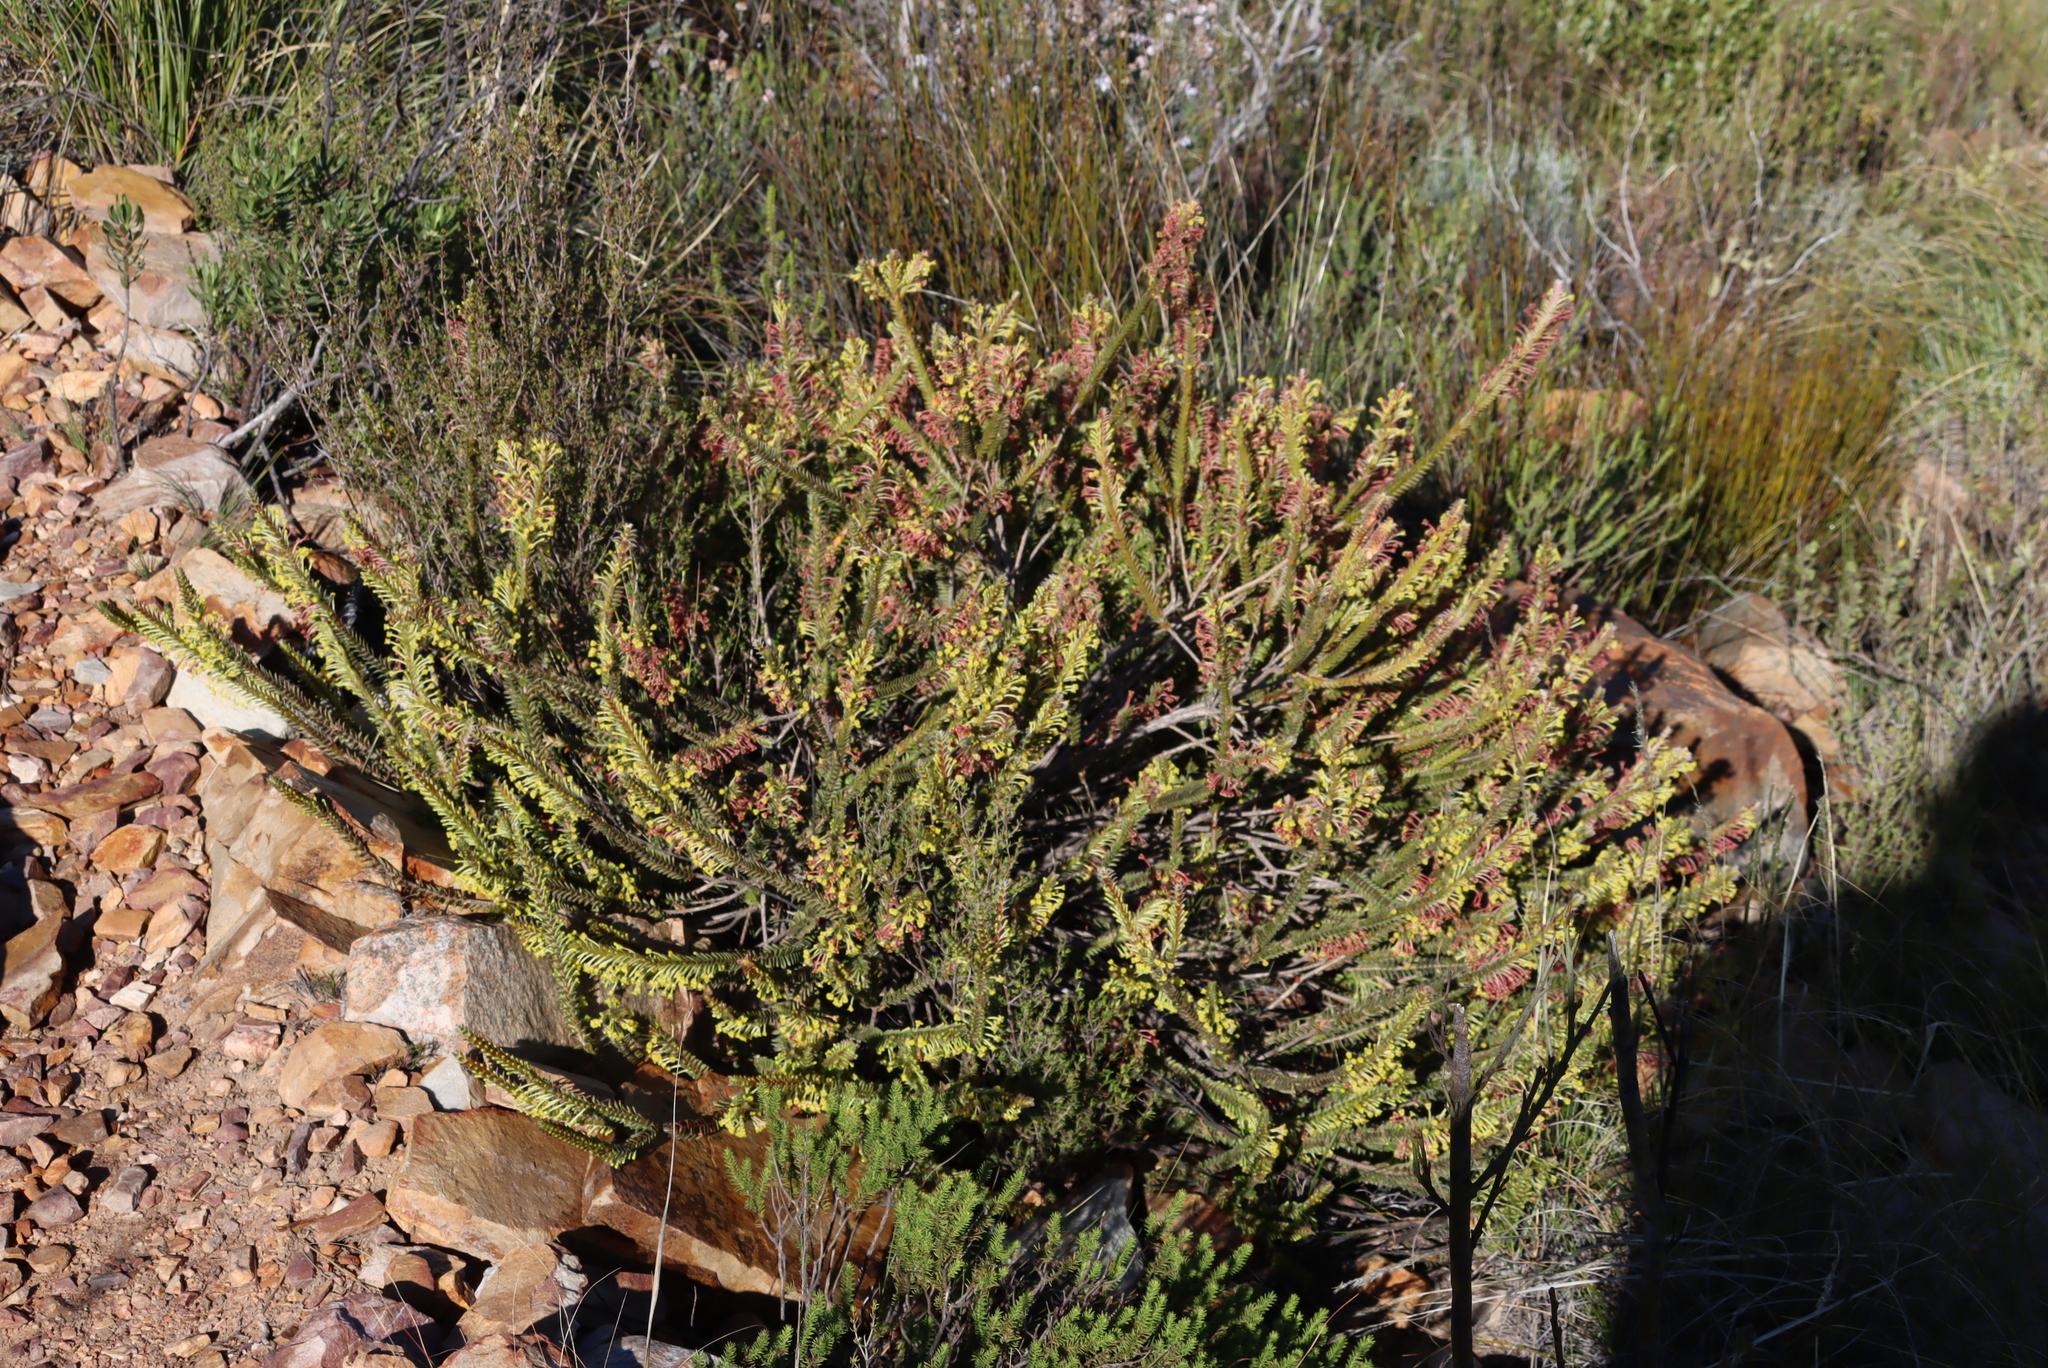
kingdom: Plantae
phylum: Tracheophyta
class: Magnoliopsida
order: Malvales
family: Thymelaeaceae
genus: Struthiola
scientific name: Struthiola argentea
